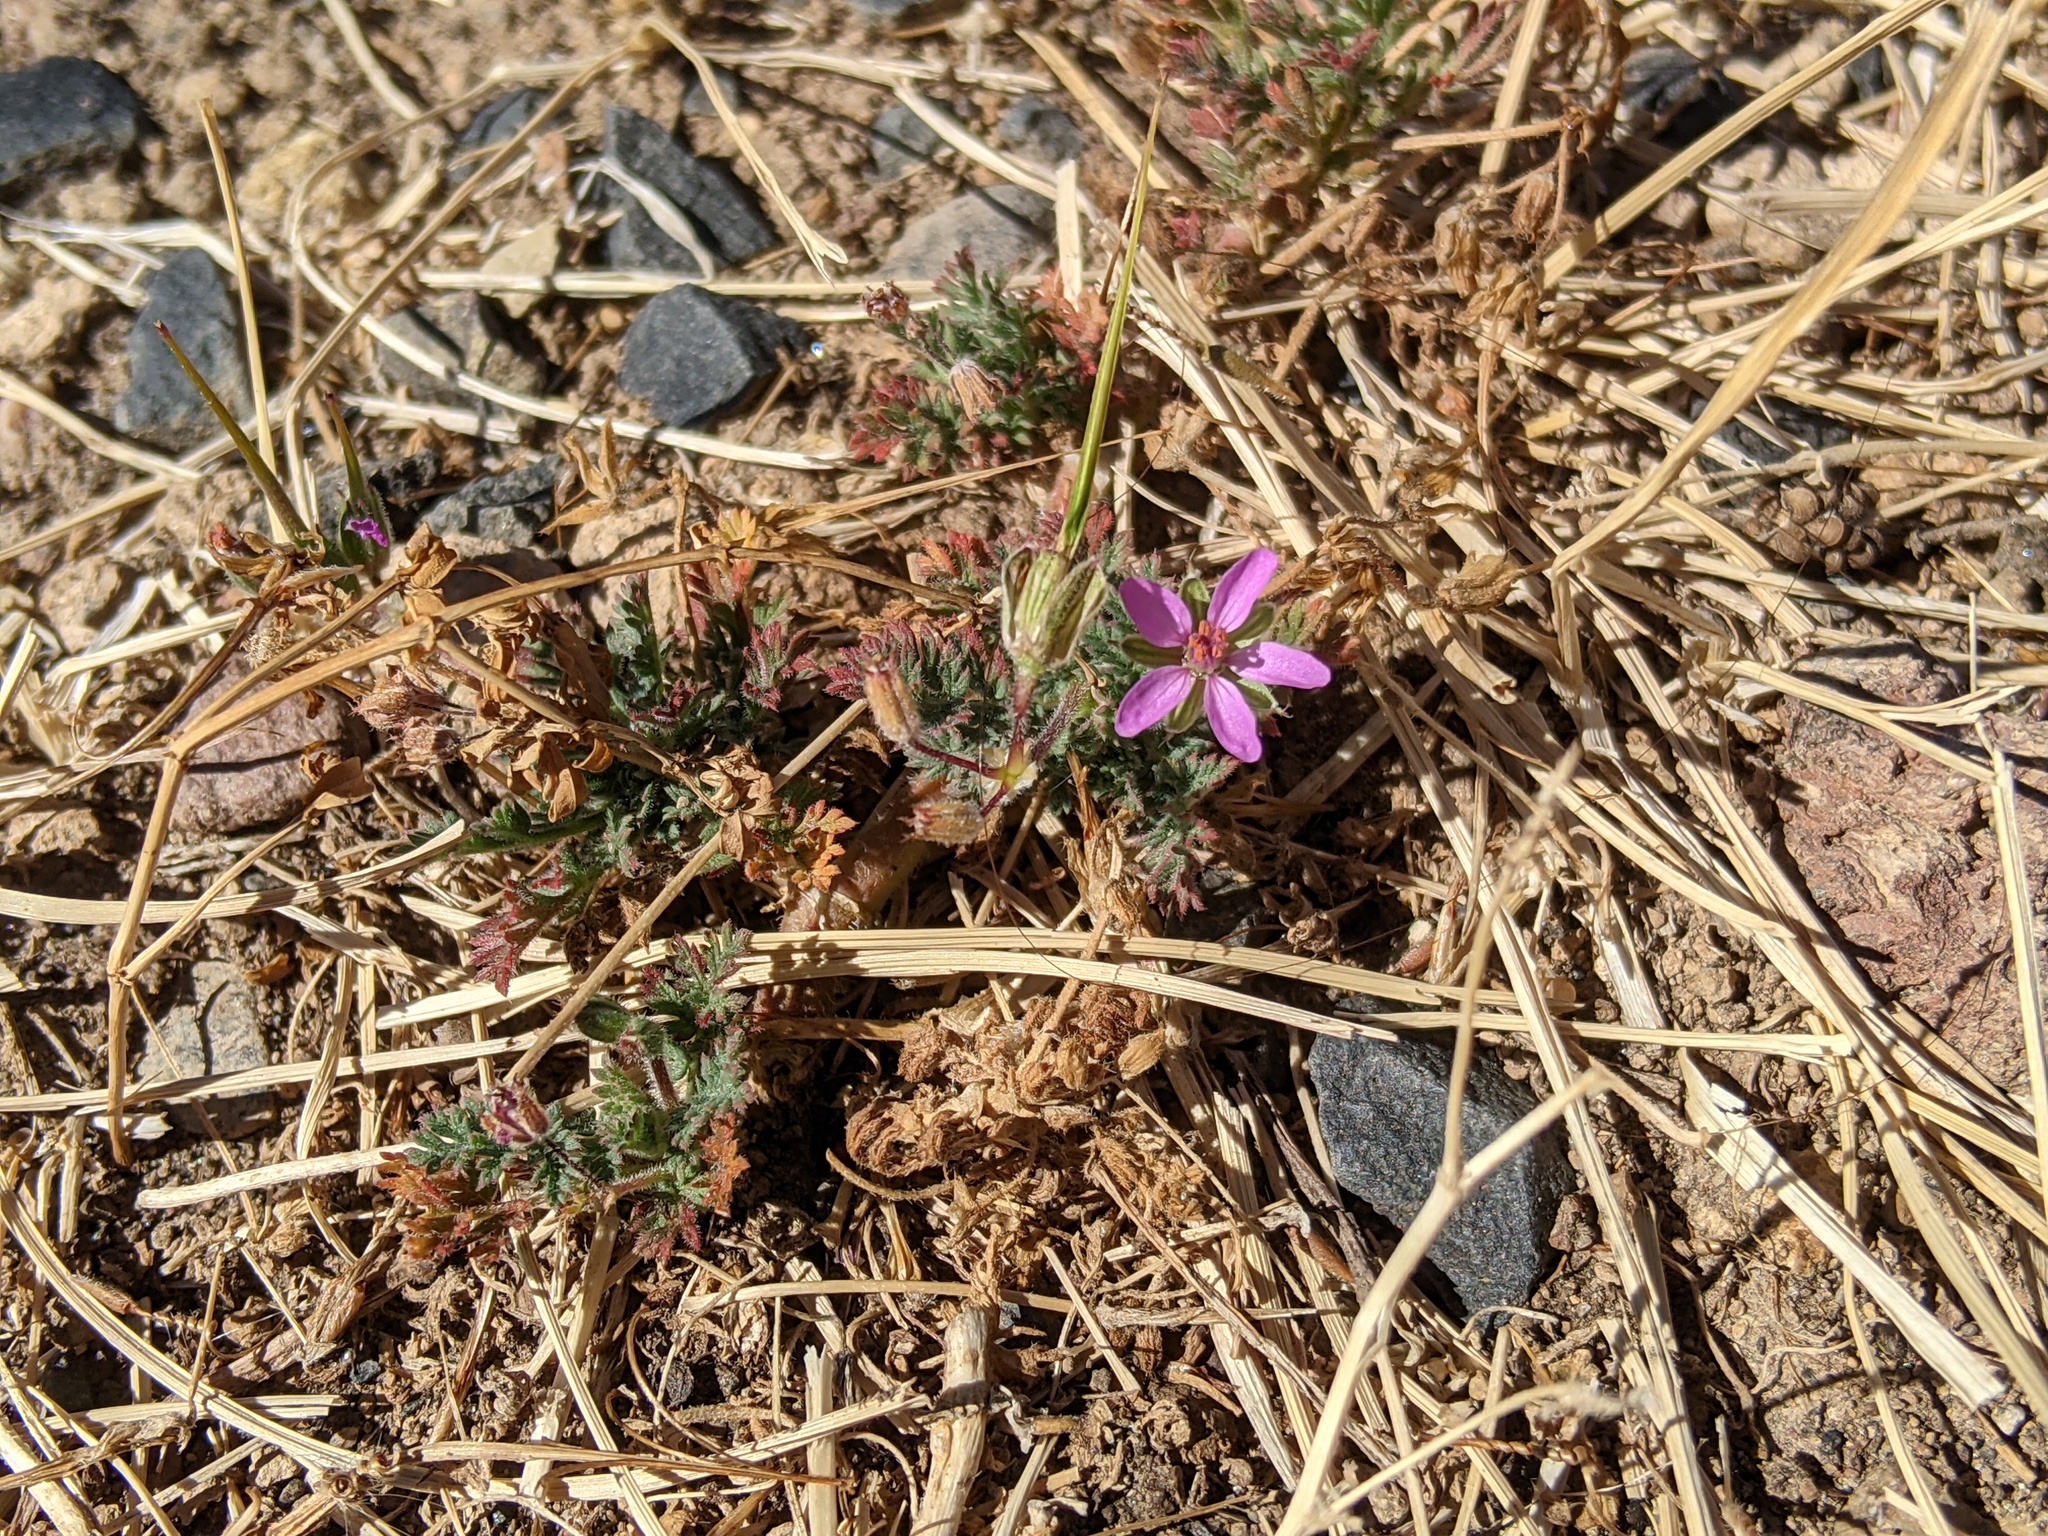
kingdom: Plantae
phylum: Tracheophyta
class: Magnoliopsida
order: Geraniales
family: Geraniaceae
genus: Erodium
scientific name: Erodium cicutarium
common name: Common stork's-bill
